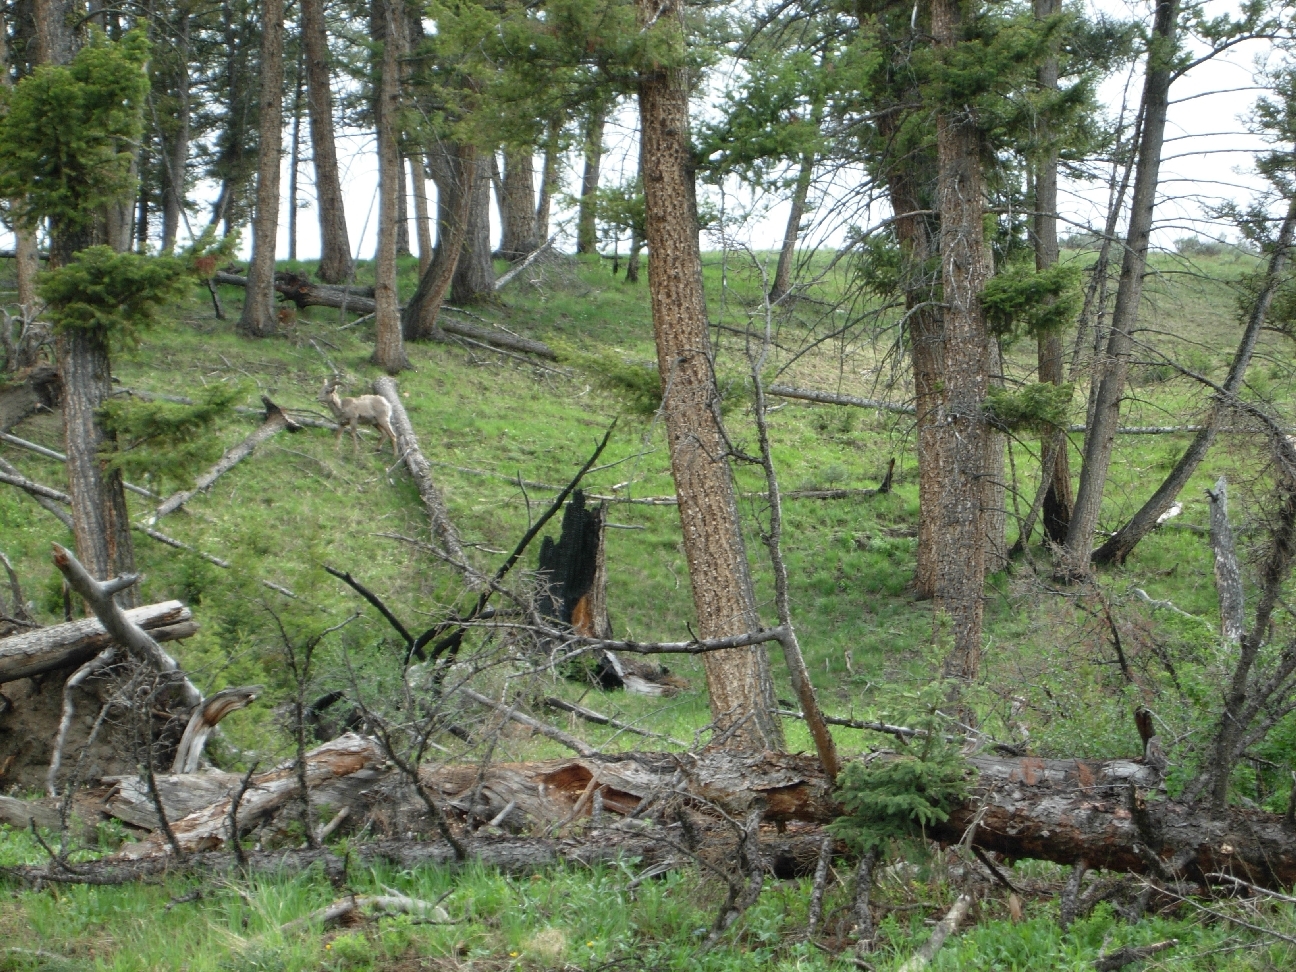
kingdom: Animalia
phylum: Chordata
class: Mammalia
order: Artiodactyla
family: Bovidae
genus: Ovis
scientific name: Ovis canadensis
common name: Bighorn sheep
